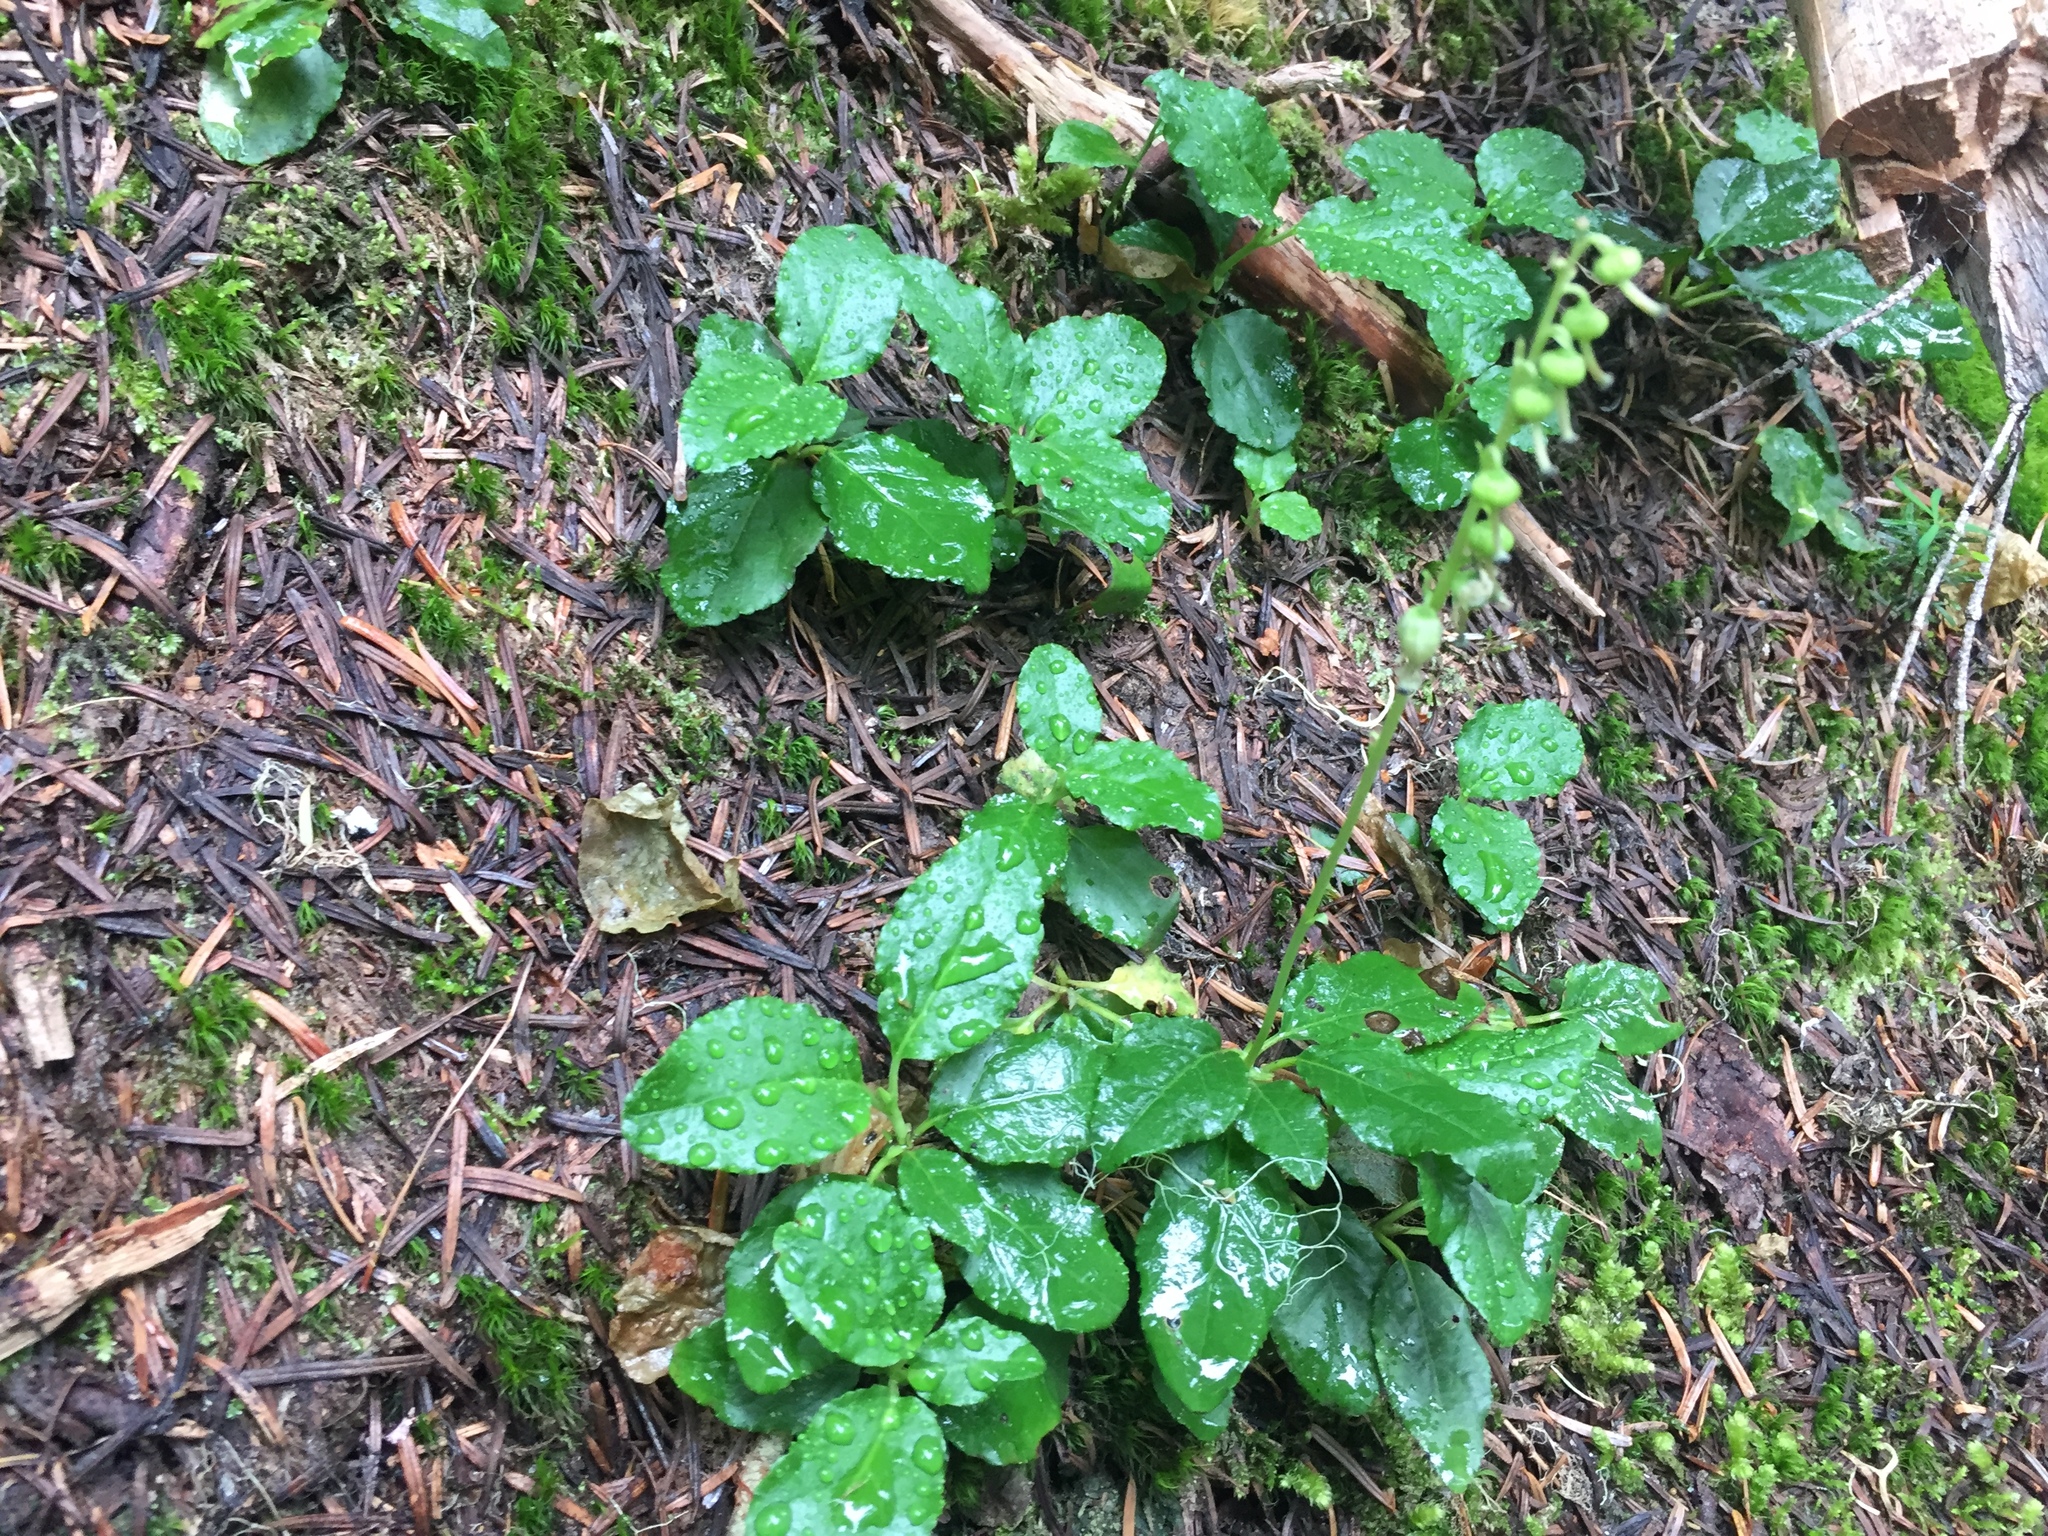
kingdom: Plantae
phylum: Tracheophyta
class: Magnoliopsida
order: Ericales
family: Ericaceae
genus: Orthilia
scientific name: Orthilia secunda
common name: One-sided orthilia
